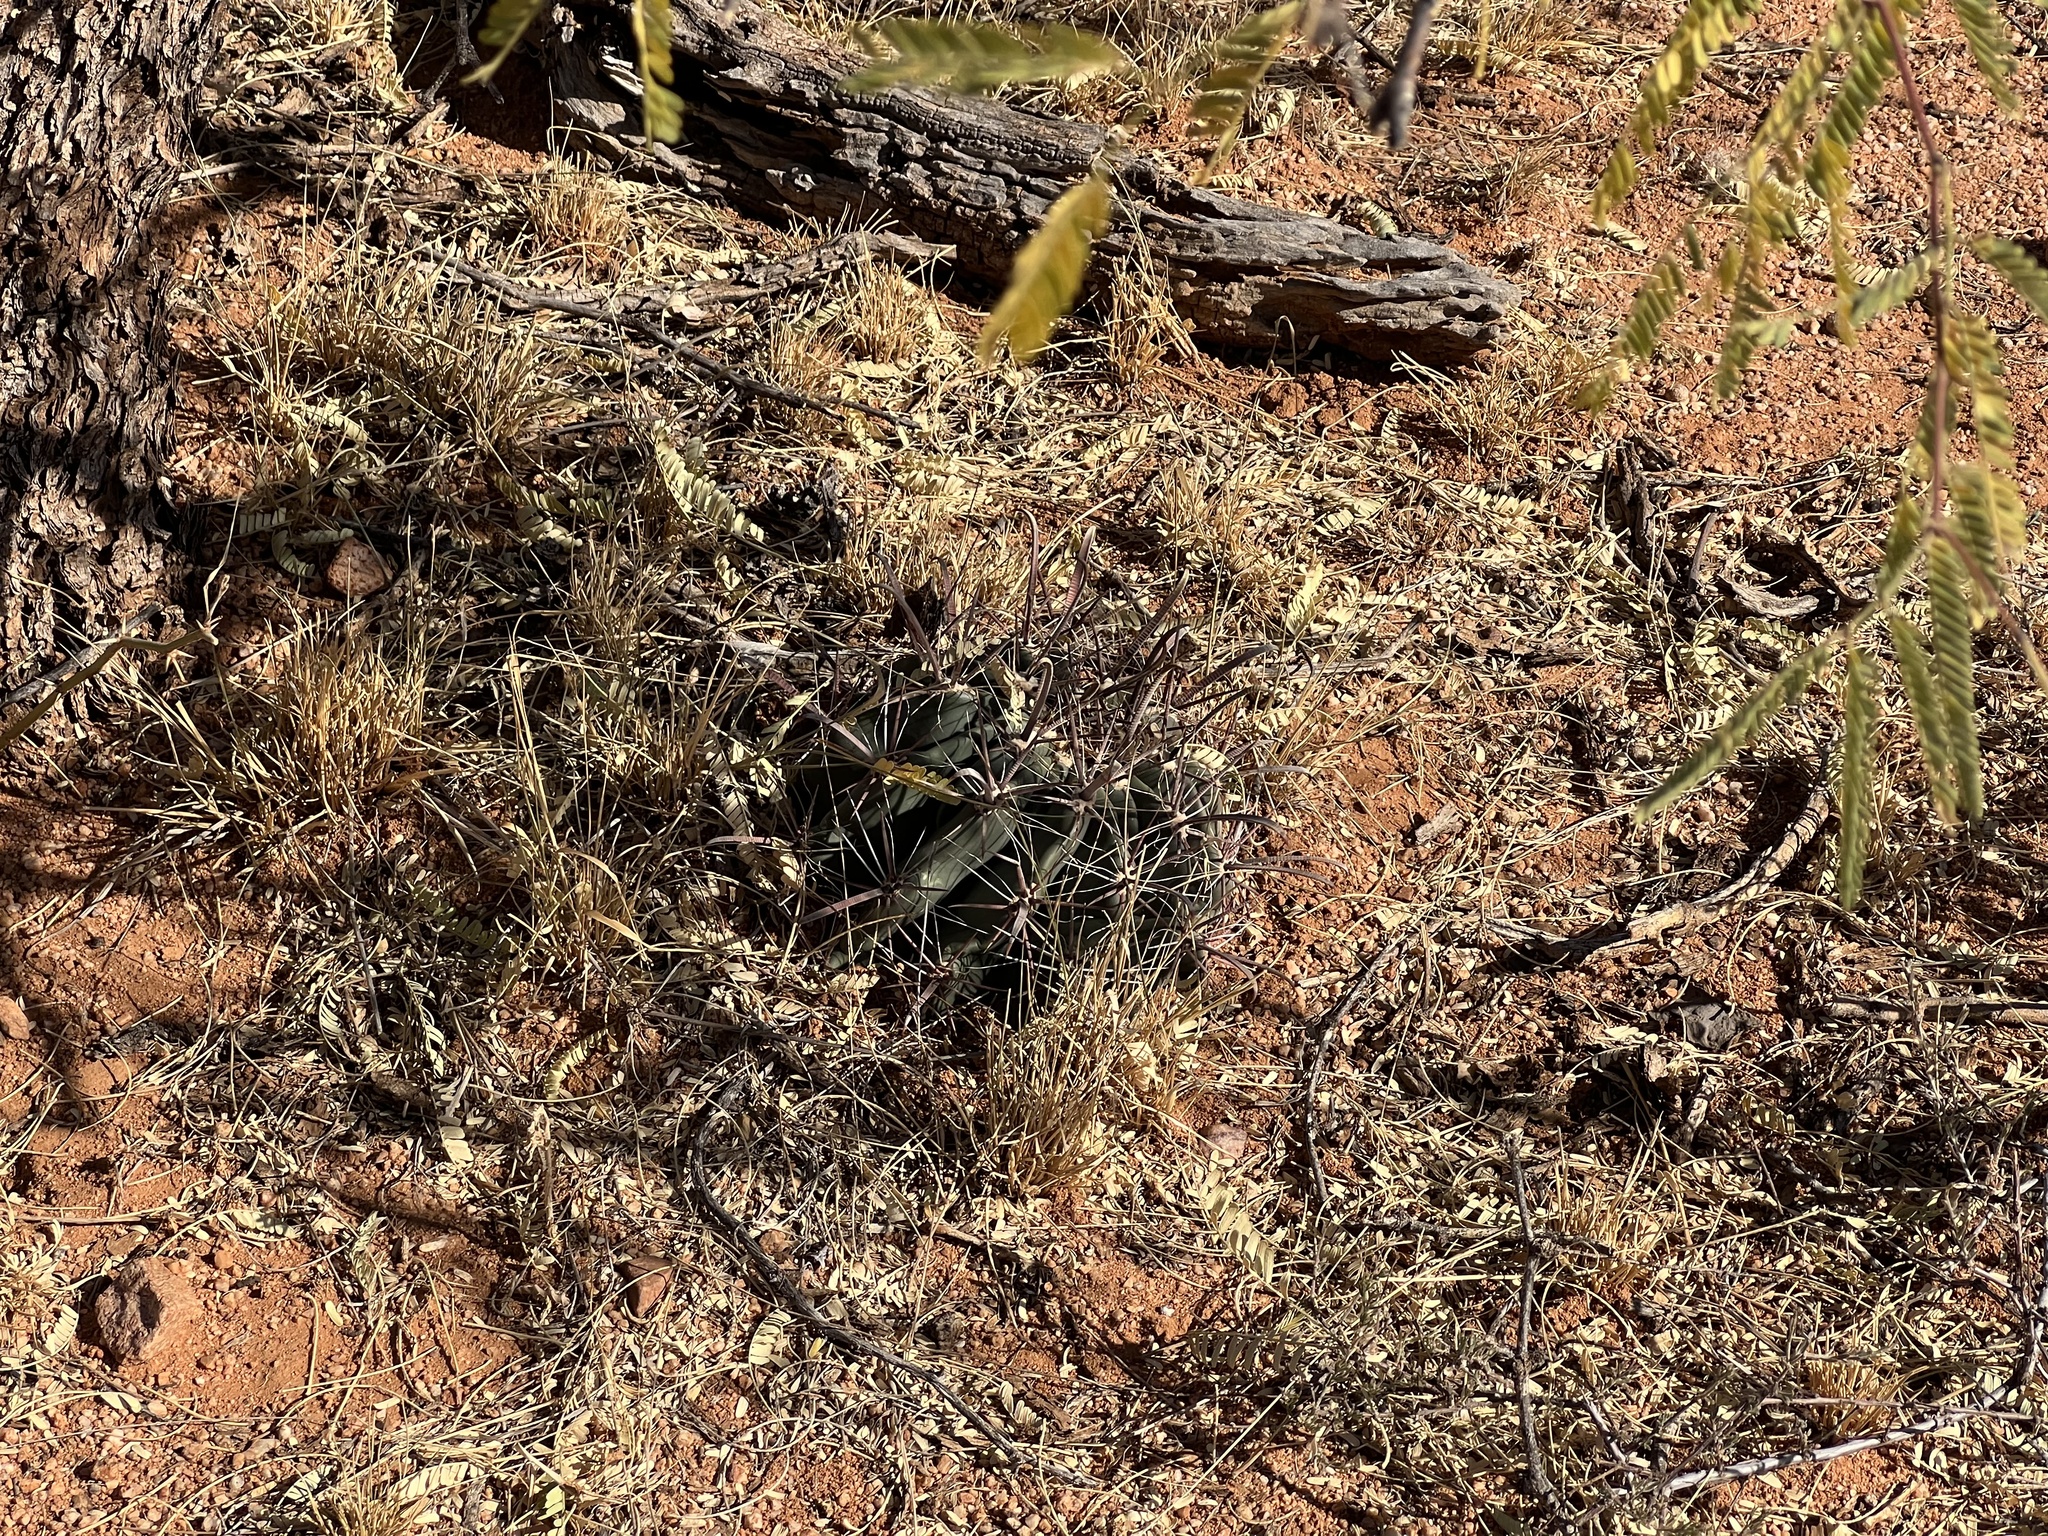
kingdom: Plantae
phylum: Tracheophyta
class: Magnoliopsida
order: Caryophyllales
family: Cactaceae
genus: Ferocactus
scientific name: Ferocactus wislizeni
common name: Candy barrel cactus
